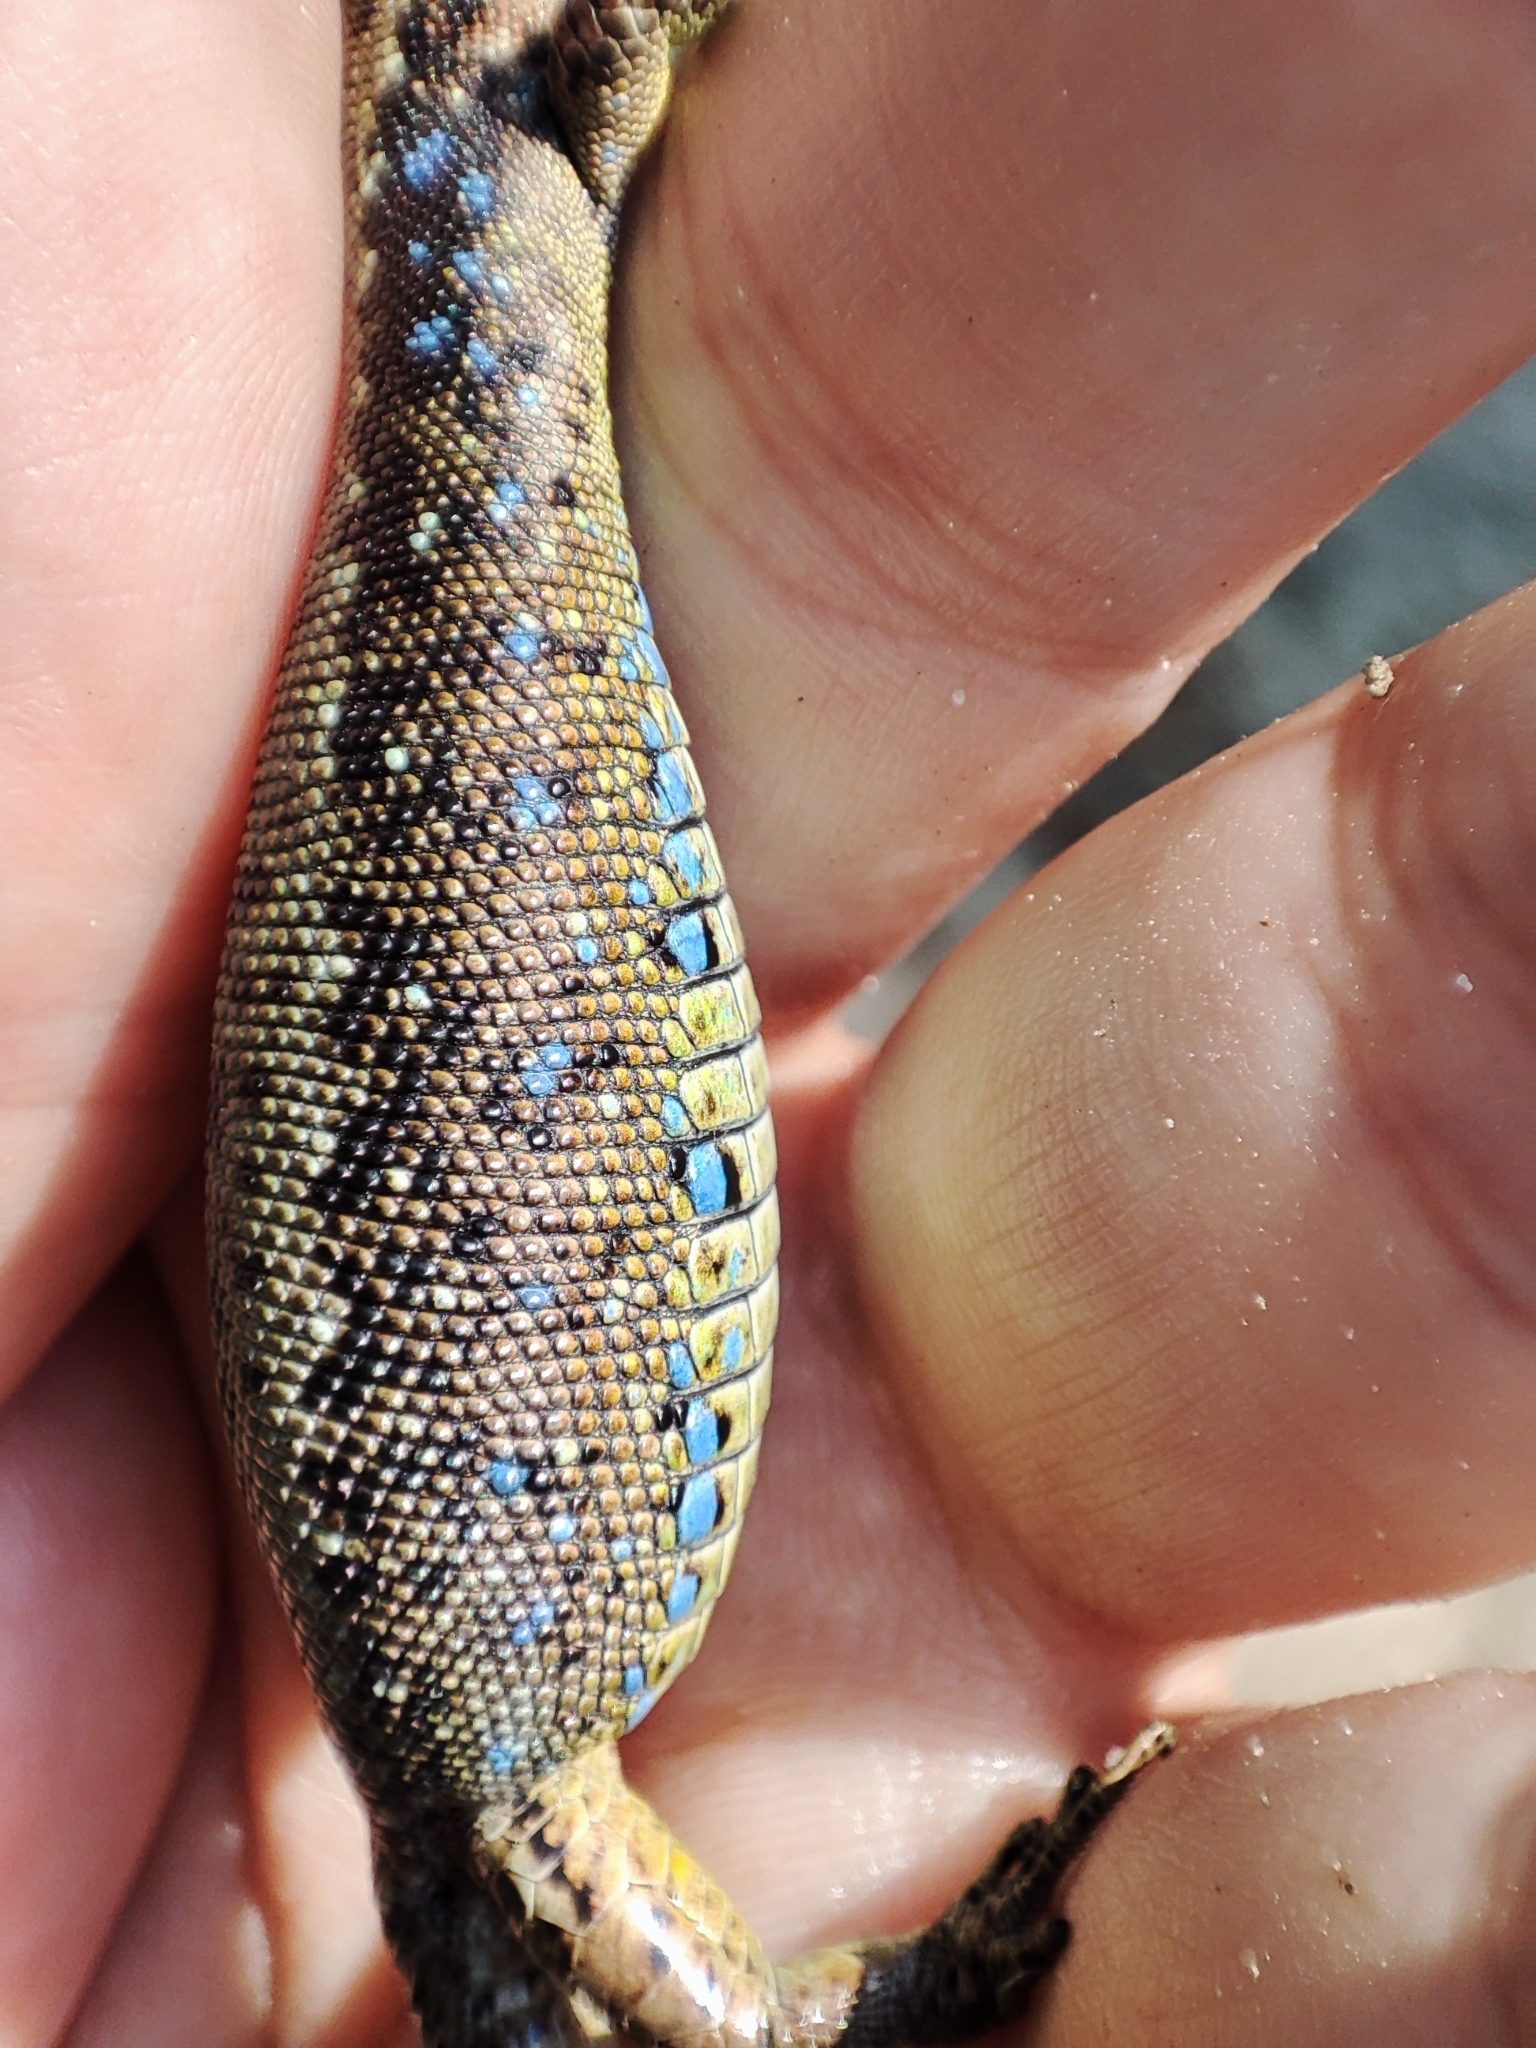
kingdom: Animalia
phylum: Chordata
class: Squamata
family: Lacertidae
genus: Darevskia
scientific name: Darevskia armeniaca
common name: Armenian lizard
